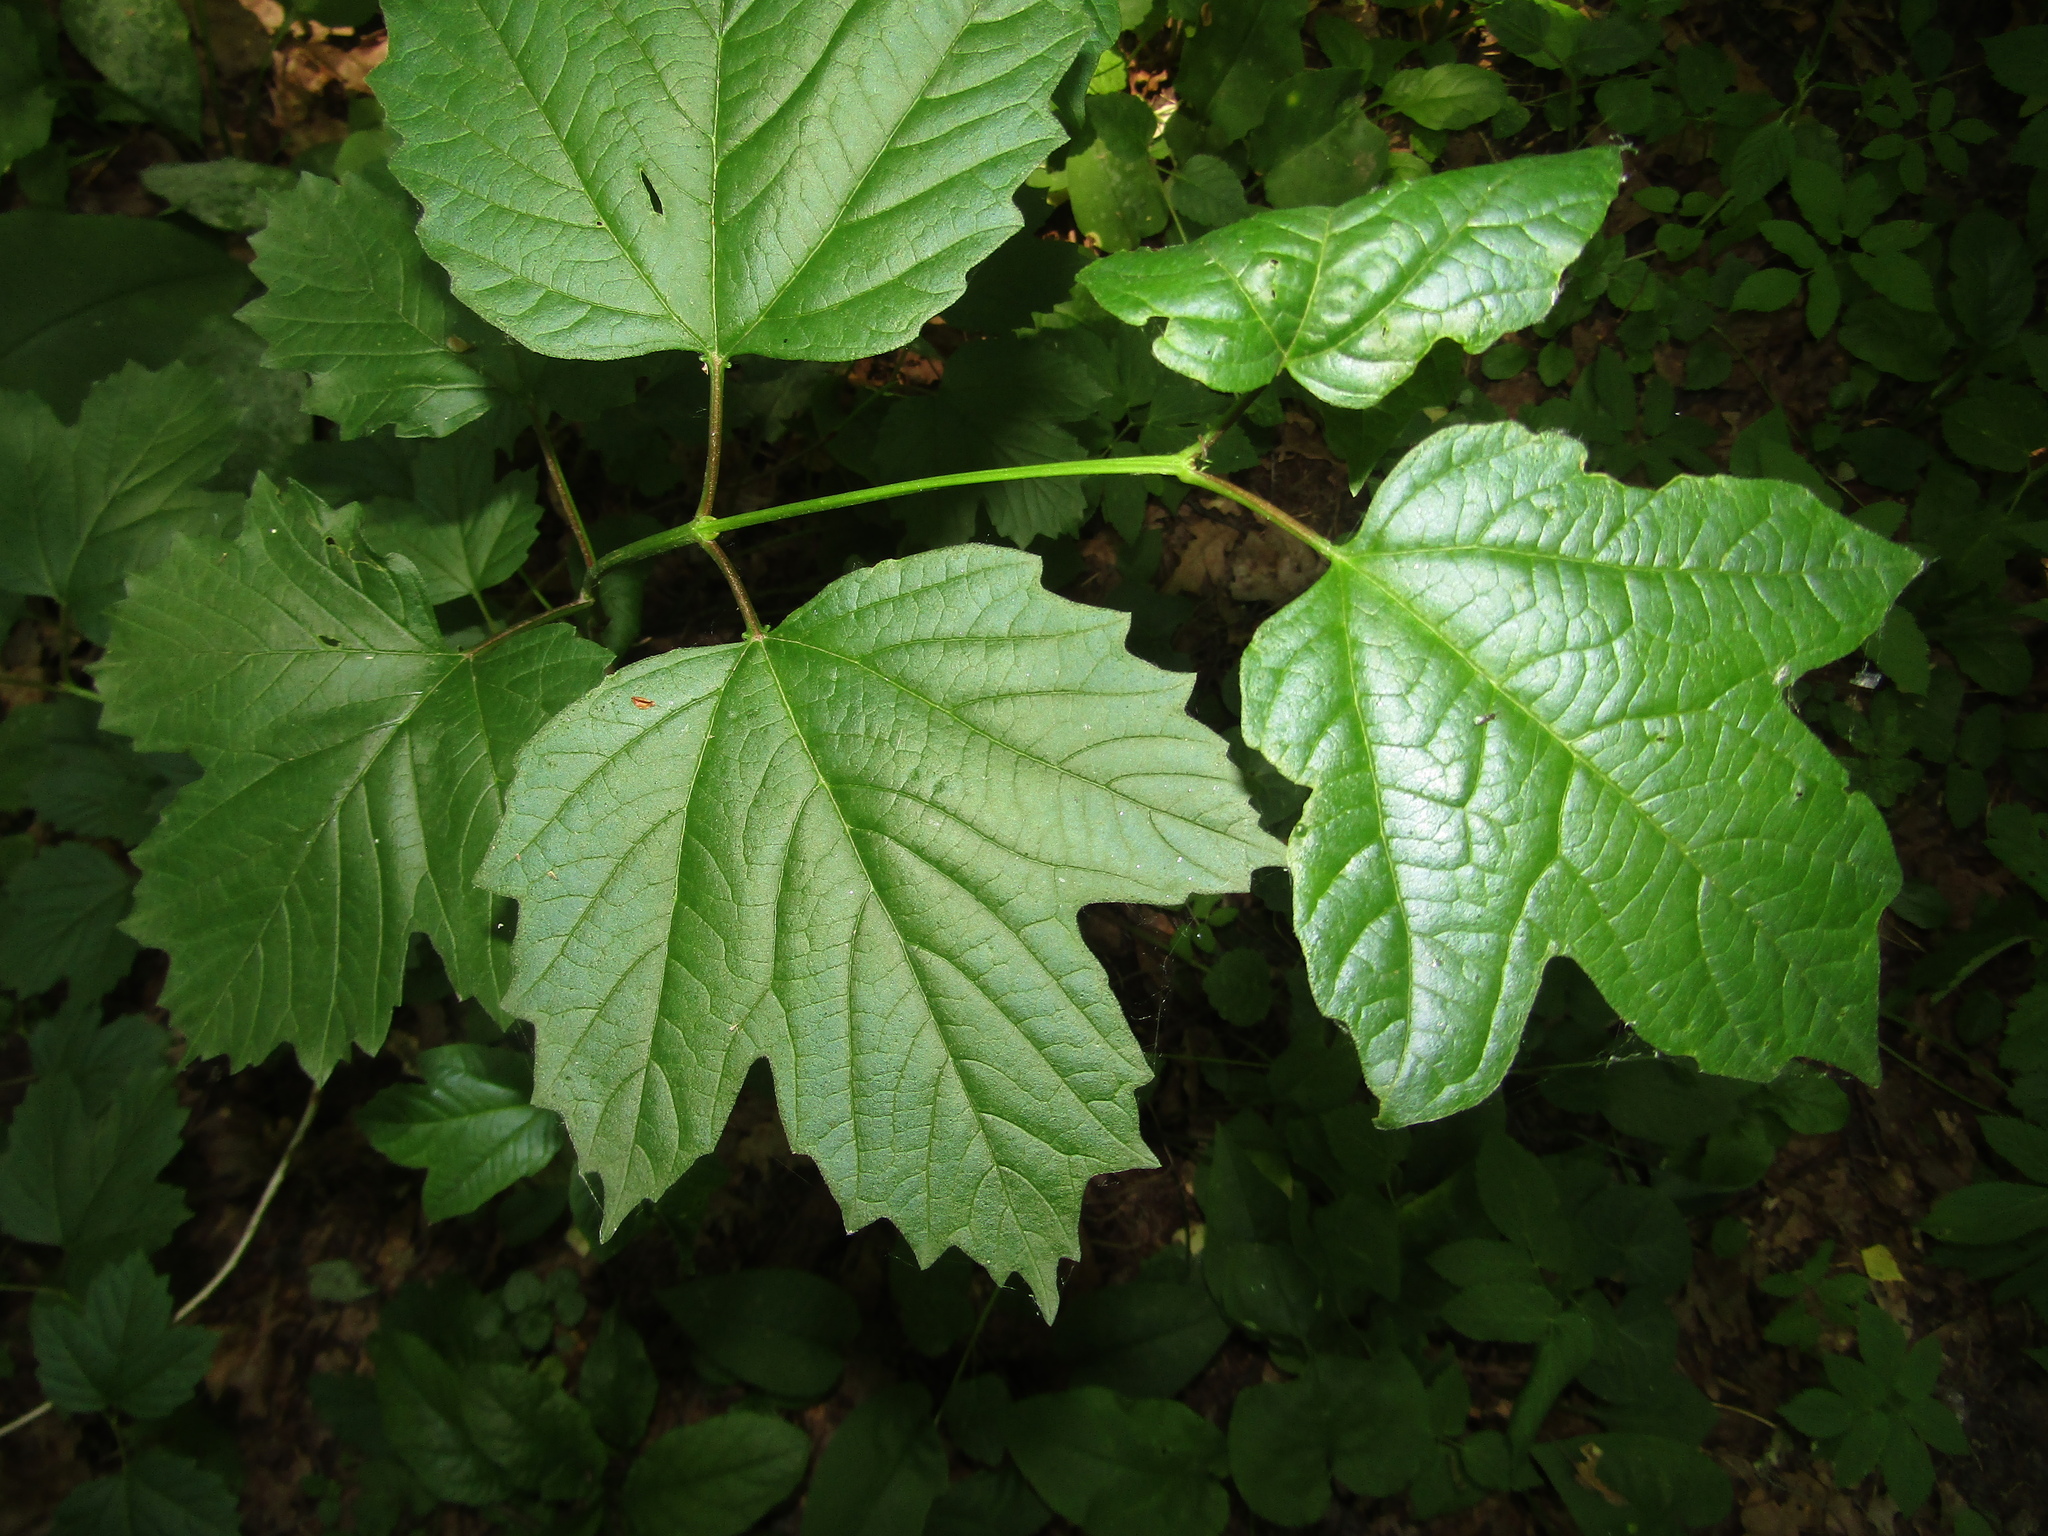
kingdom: Plantae
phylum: Tracheophyta
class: Magnoliopsida
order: Dipsacales
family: Viburnaceae
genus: Viburnum
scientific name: Viburnum opulus
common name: Guelder-rose
